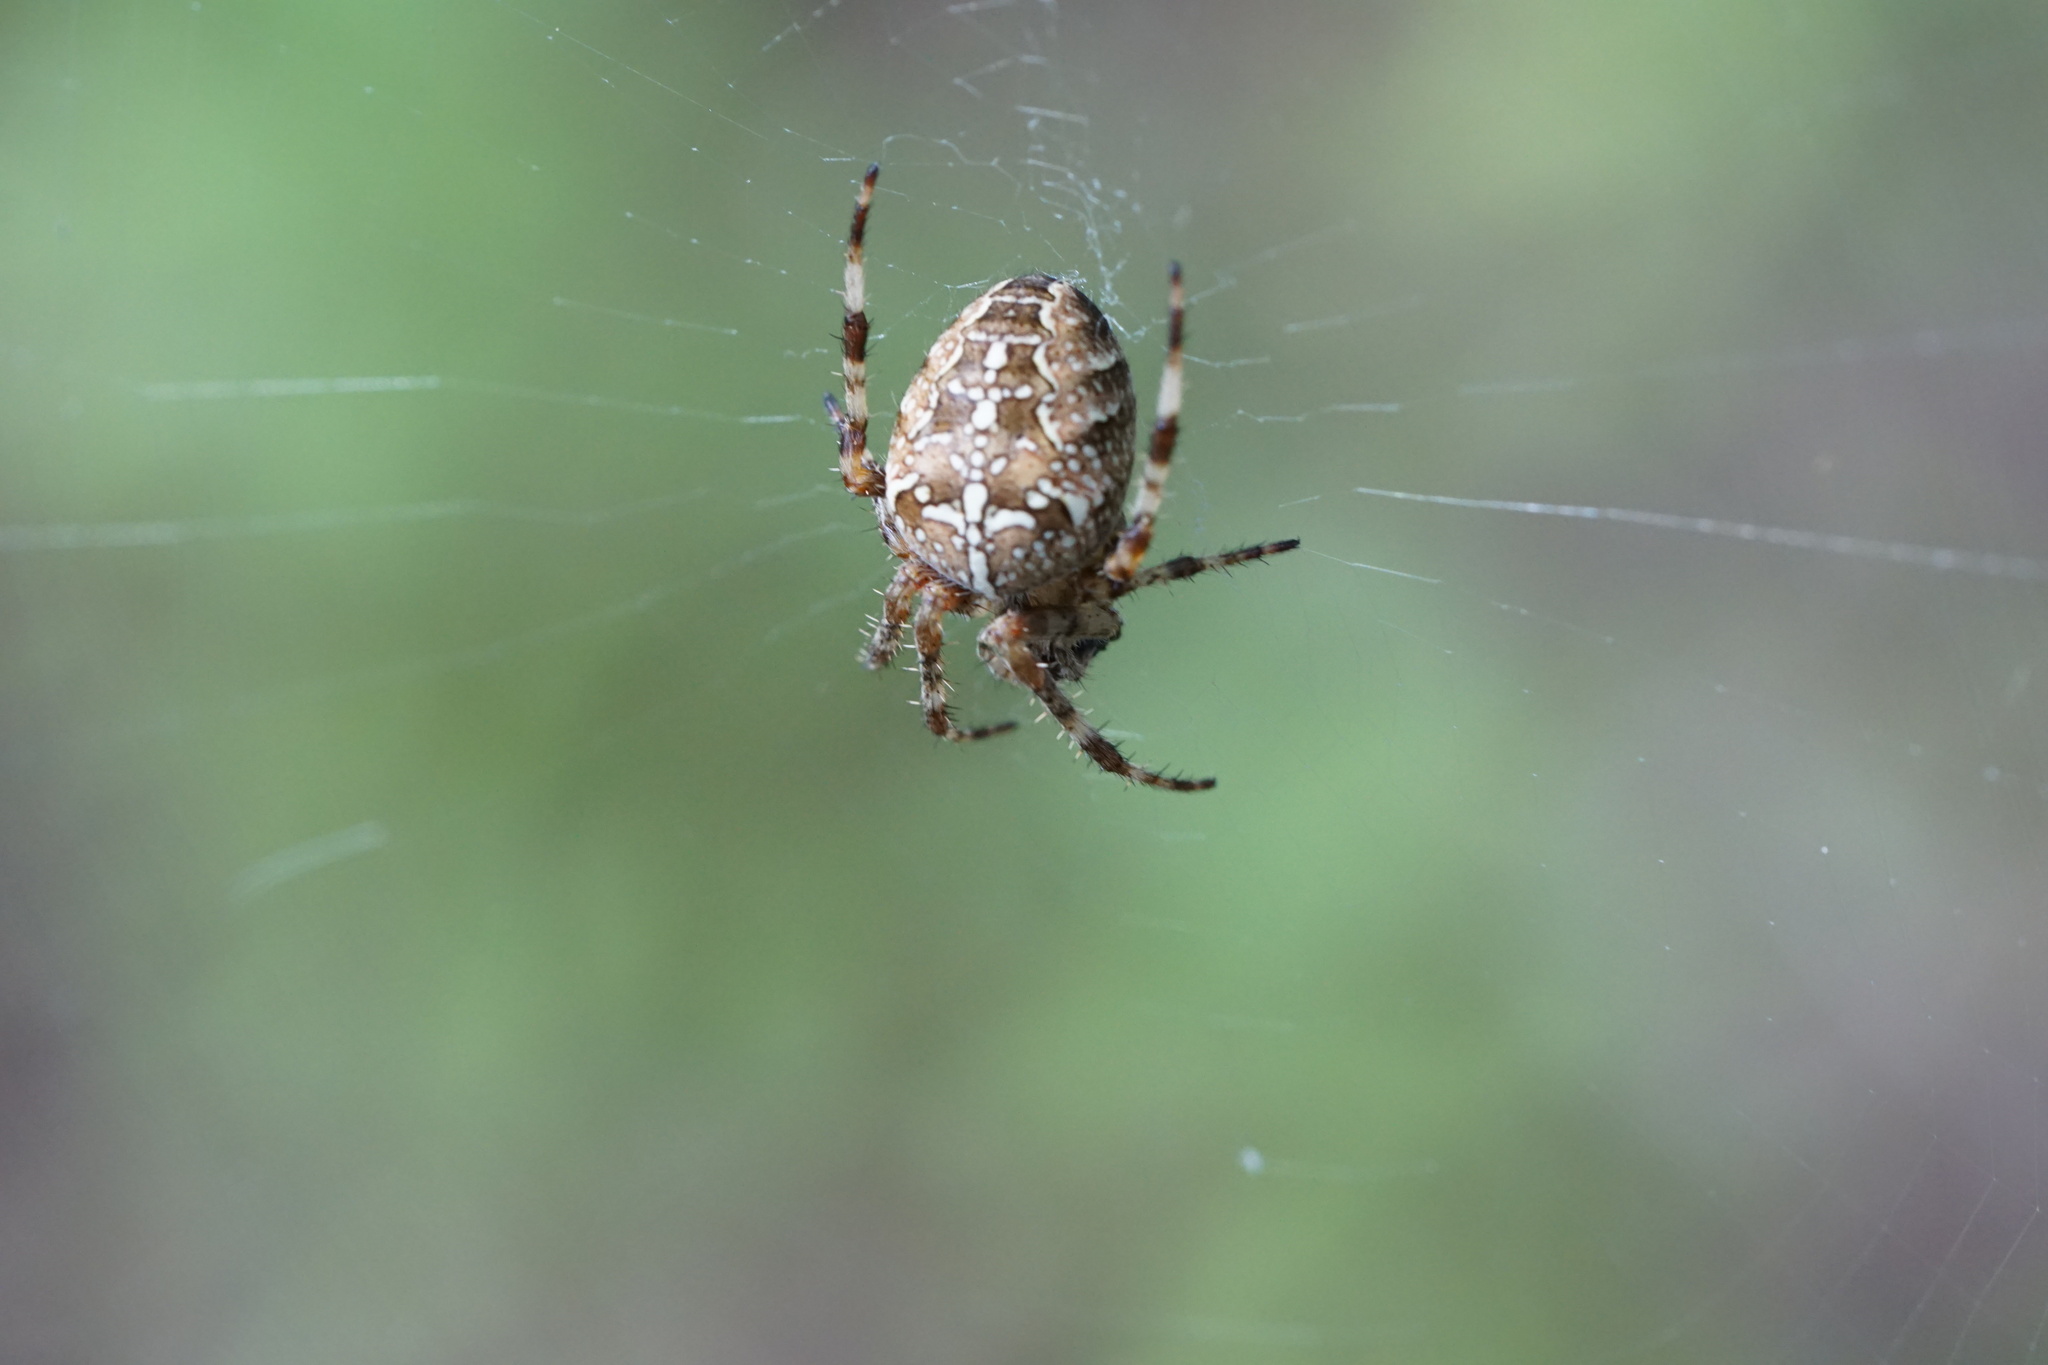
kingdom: Animalia
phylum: Arthropoda
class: Arachnida
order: Araneae
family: Araneidae
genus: Araneus
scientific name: Araneus diadematus
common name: Cross orbweaver
